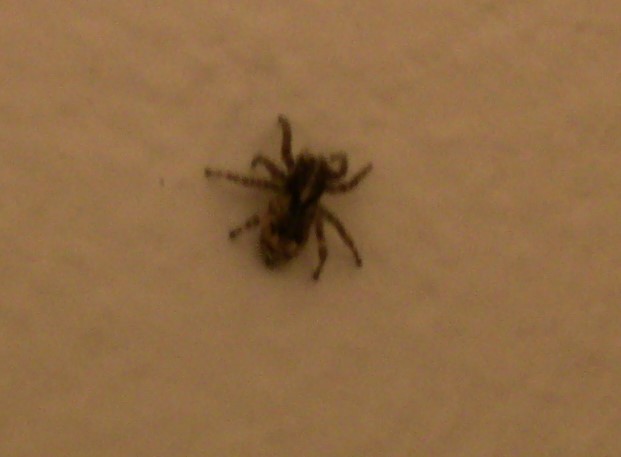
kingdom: Animalia
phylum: Arthropoda
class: Arachnida
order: Araneae
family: Salticidae
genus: Attulus
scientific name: Attulus fasciger
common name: Asiatic wall jumping spider
